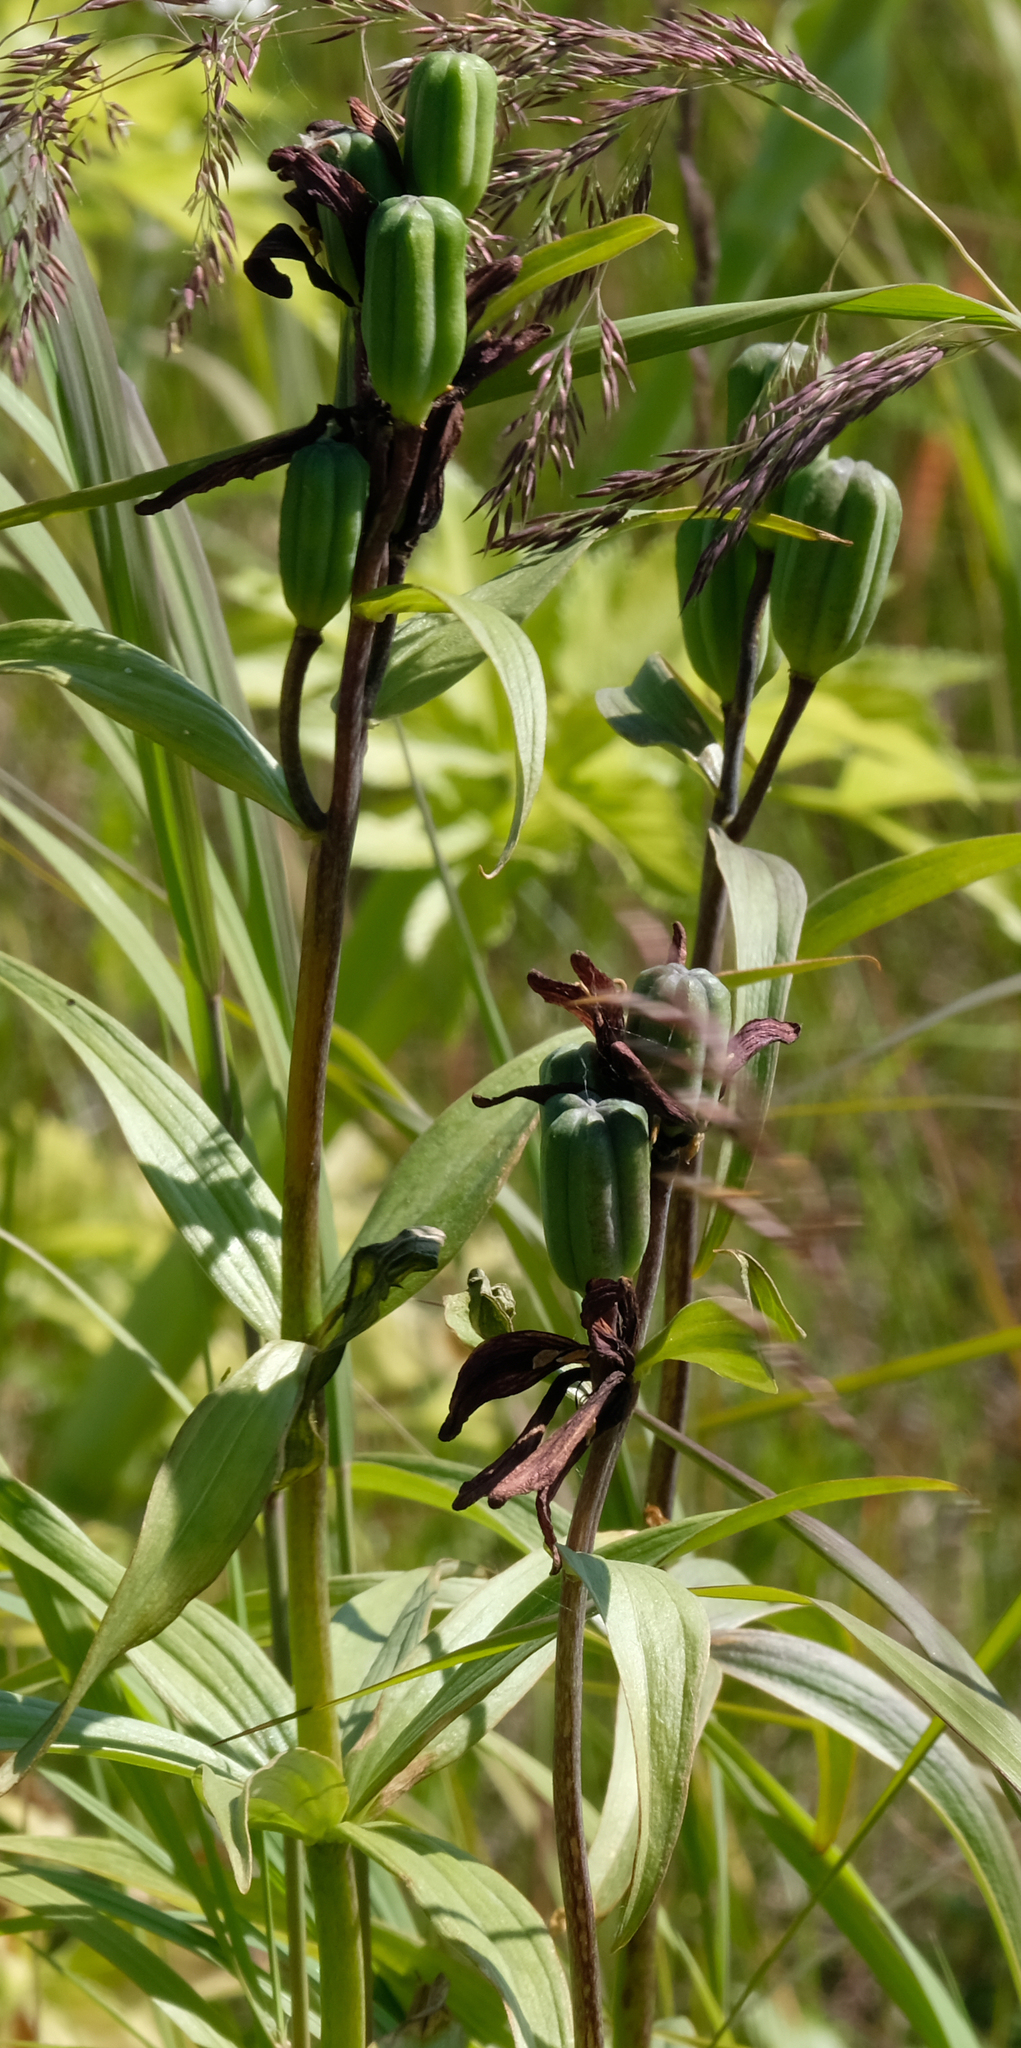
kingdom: Plantae
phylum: Tracheophyta
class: Liliopsida
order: Liliales
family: Liliaceae
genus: Fritillaria
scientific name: Fritillaria camschatcensis
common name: Kamchatka fritillary
